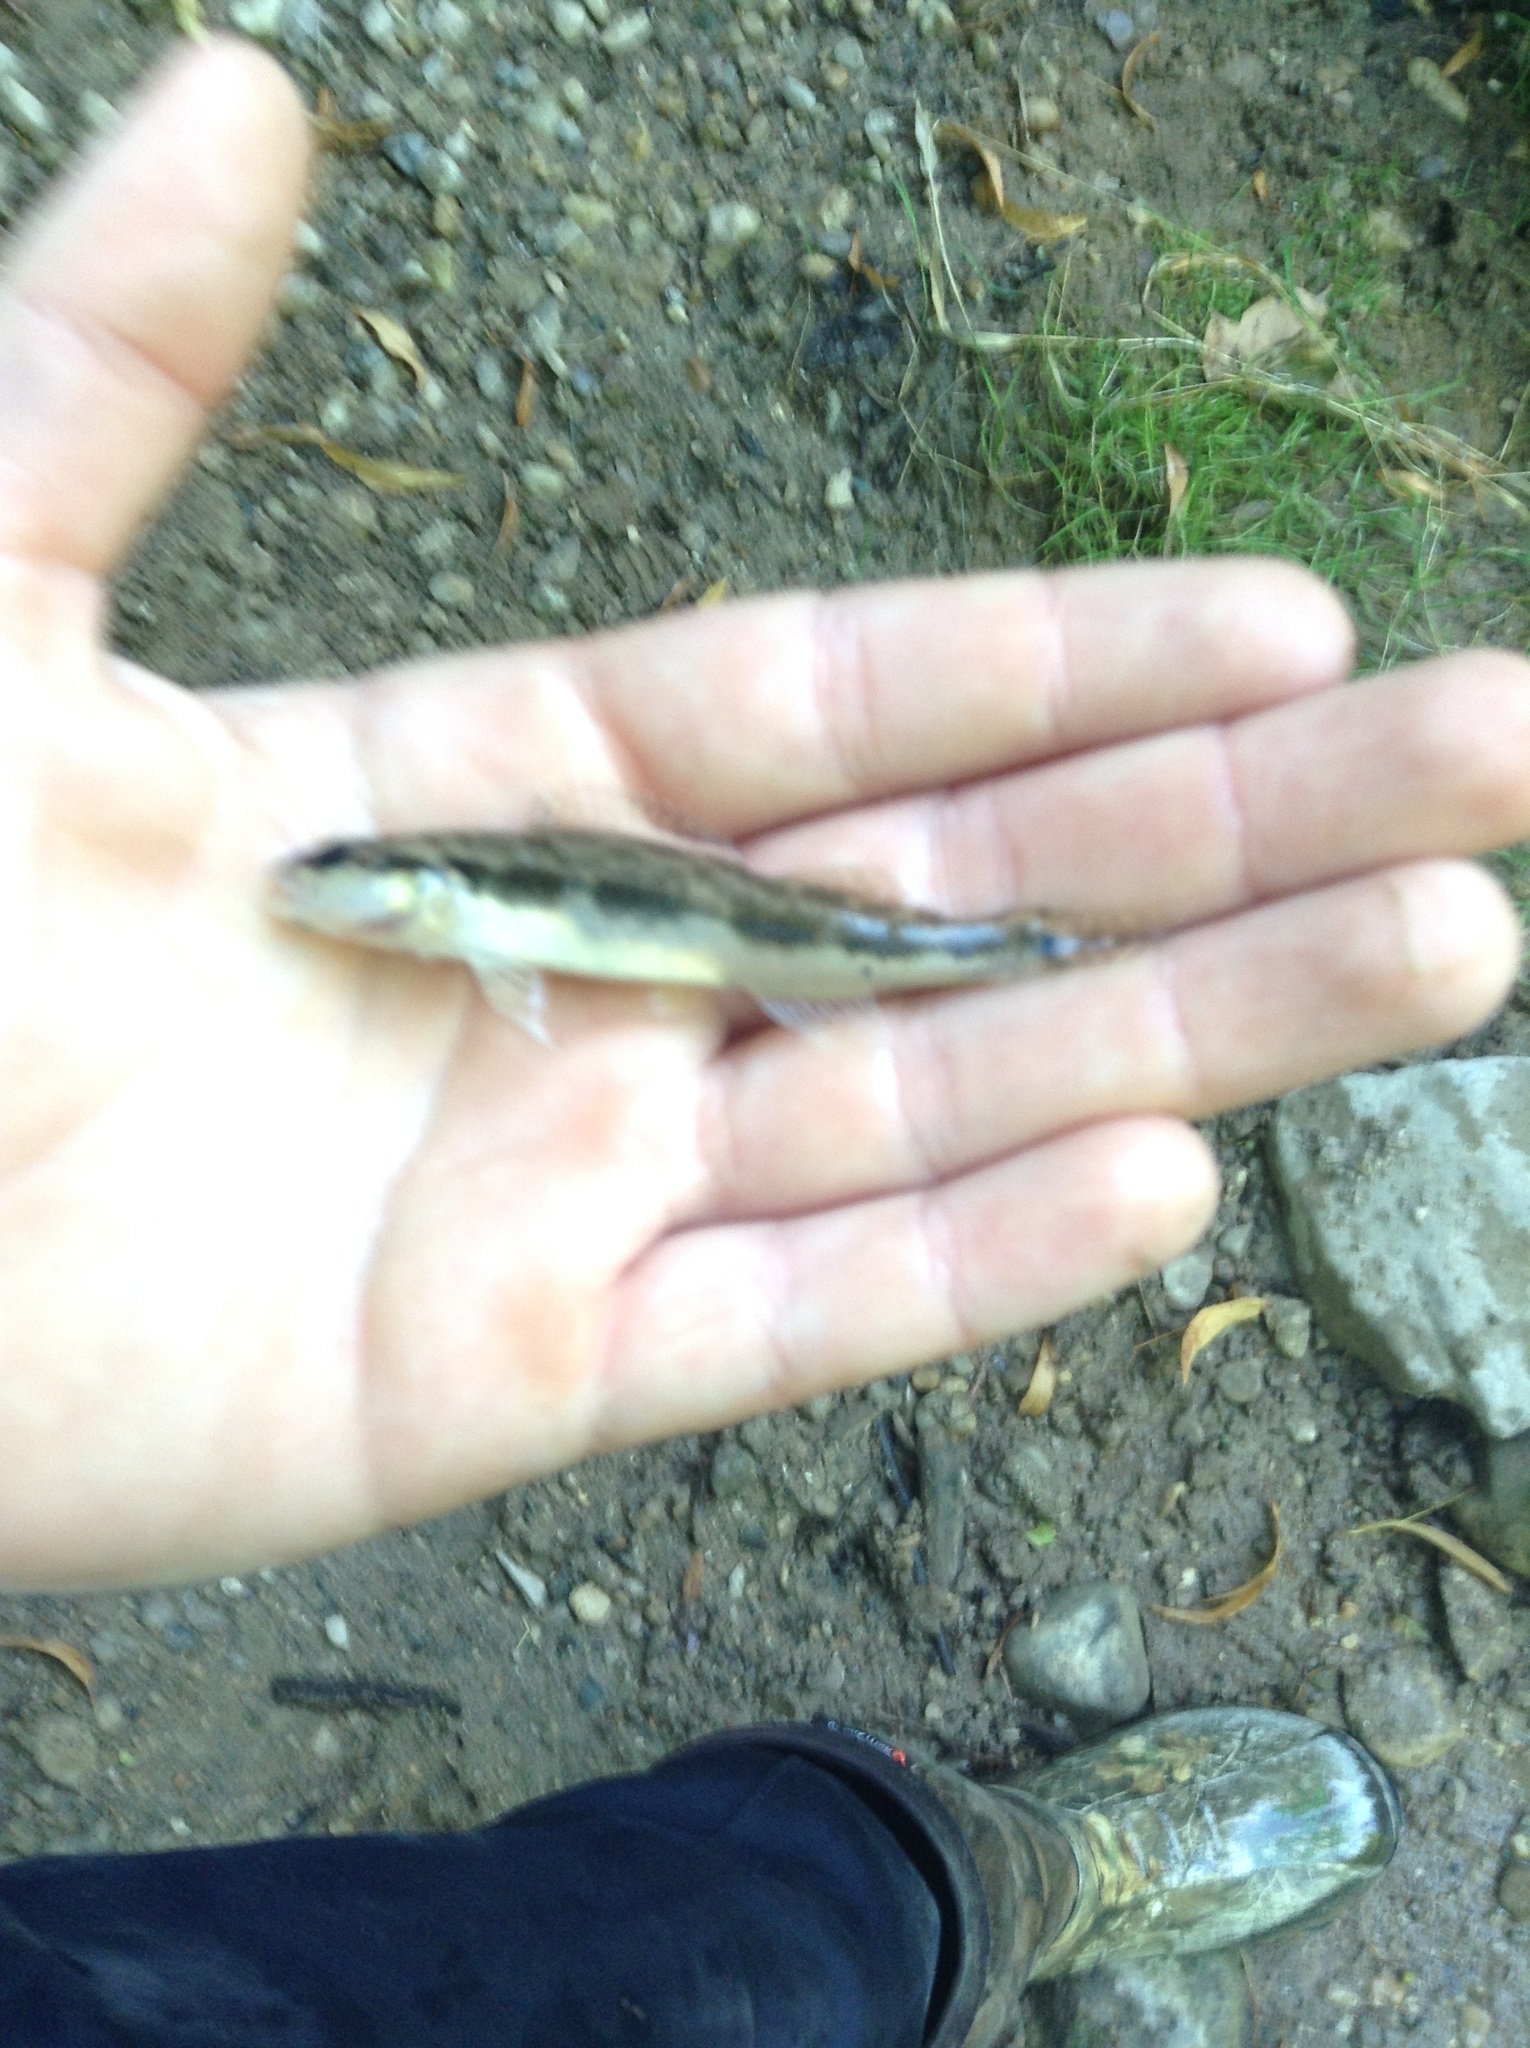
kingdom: Animalia
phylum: Chordata
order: Perciformes
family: Percidae
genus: Percina
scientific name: Percina maculata
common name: Blackside darter
